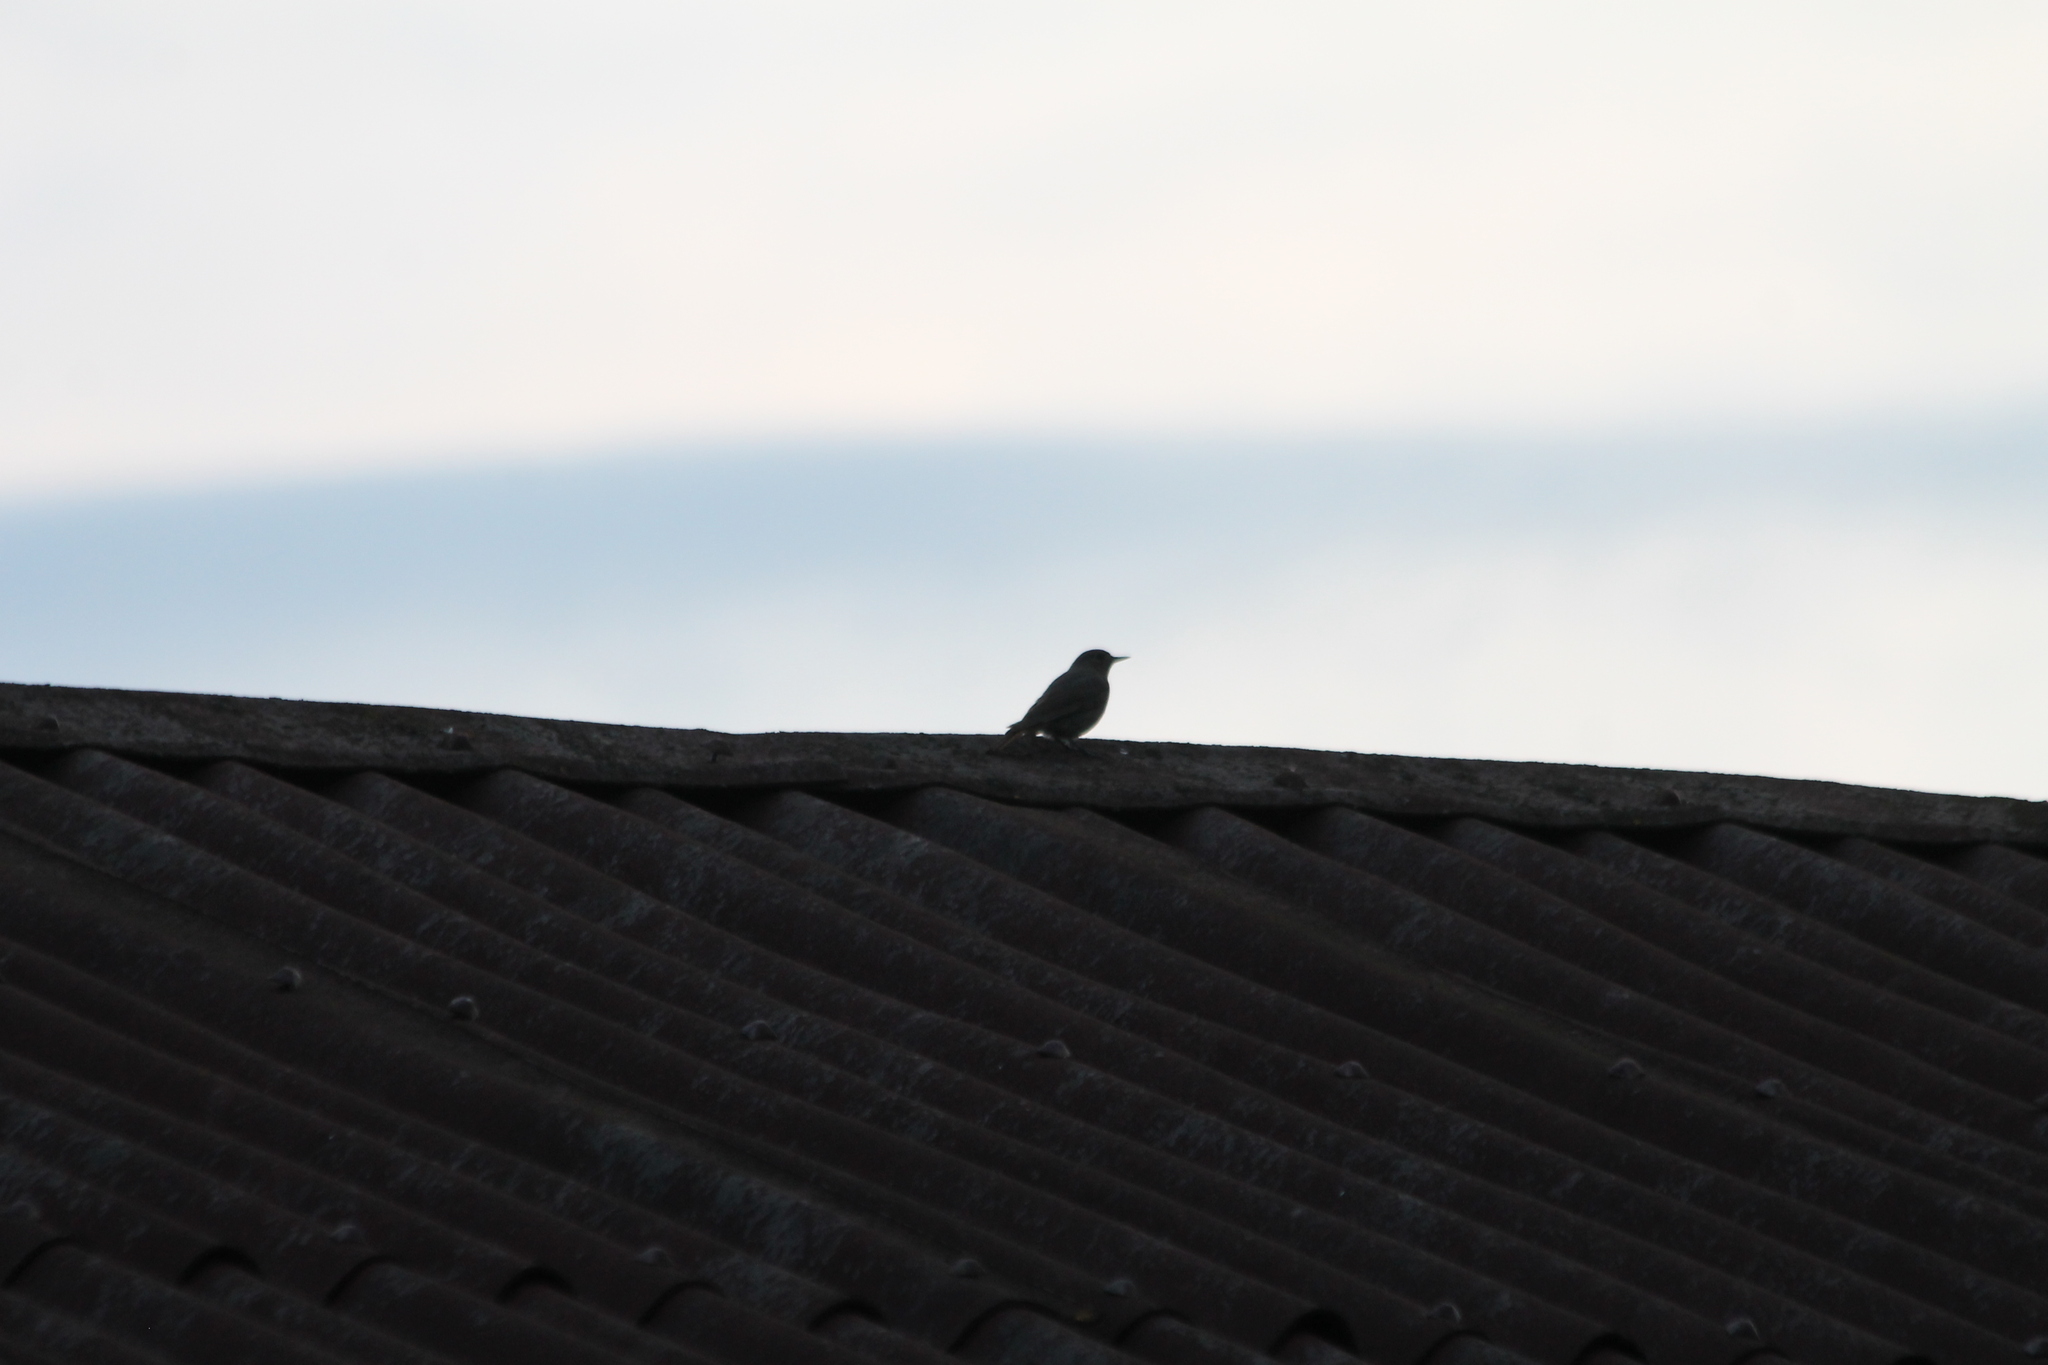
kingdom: Animalia
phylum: Chordata
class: Aves
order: Passeriformes
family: Muscicapidae
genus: Phoenicurus
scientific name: Phoenicurus ochruros
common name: Black redstart
